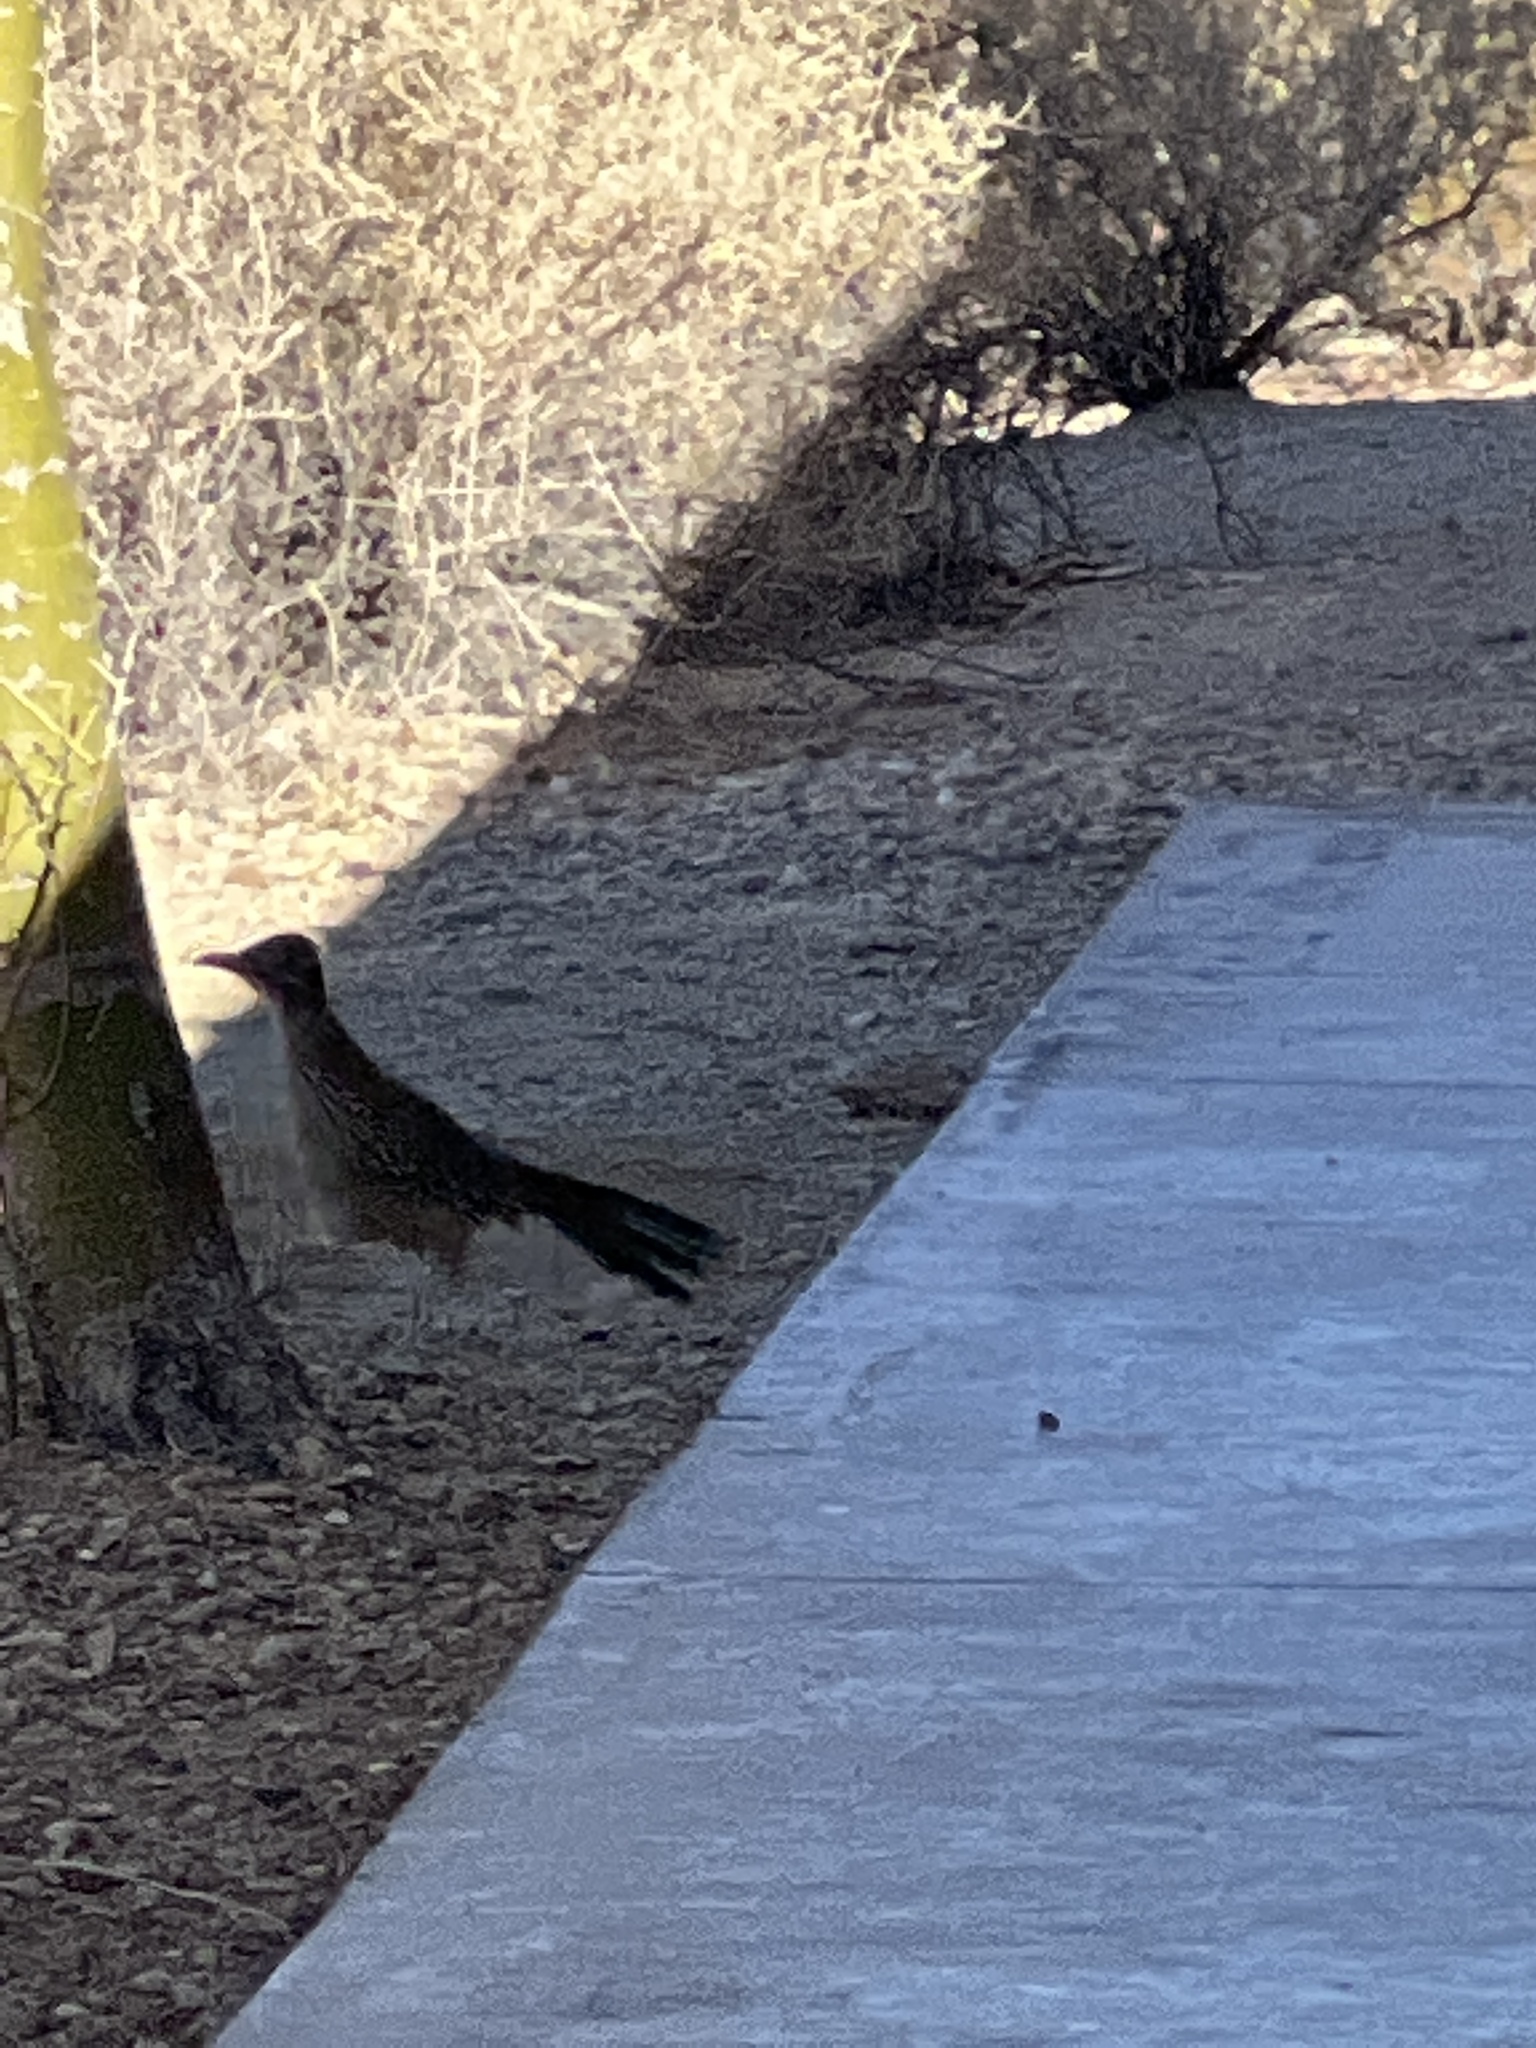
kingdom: Animalia
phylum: Chordata
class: Aves
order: Cuculiformes
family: Cuculidae
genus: Geococcyx
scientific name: Geococcyx californianus
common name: Greater roadrunner
